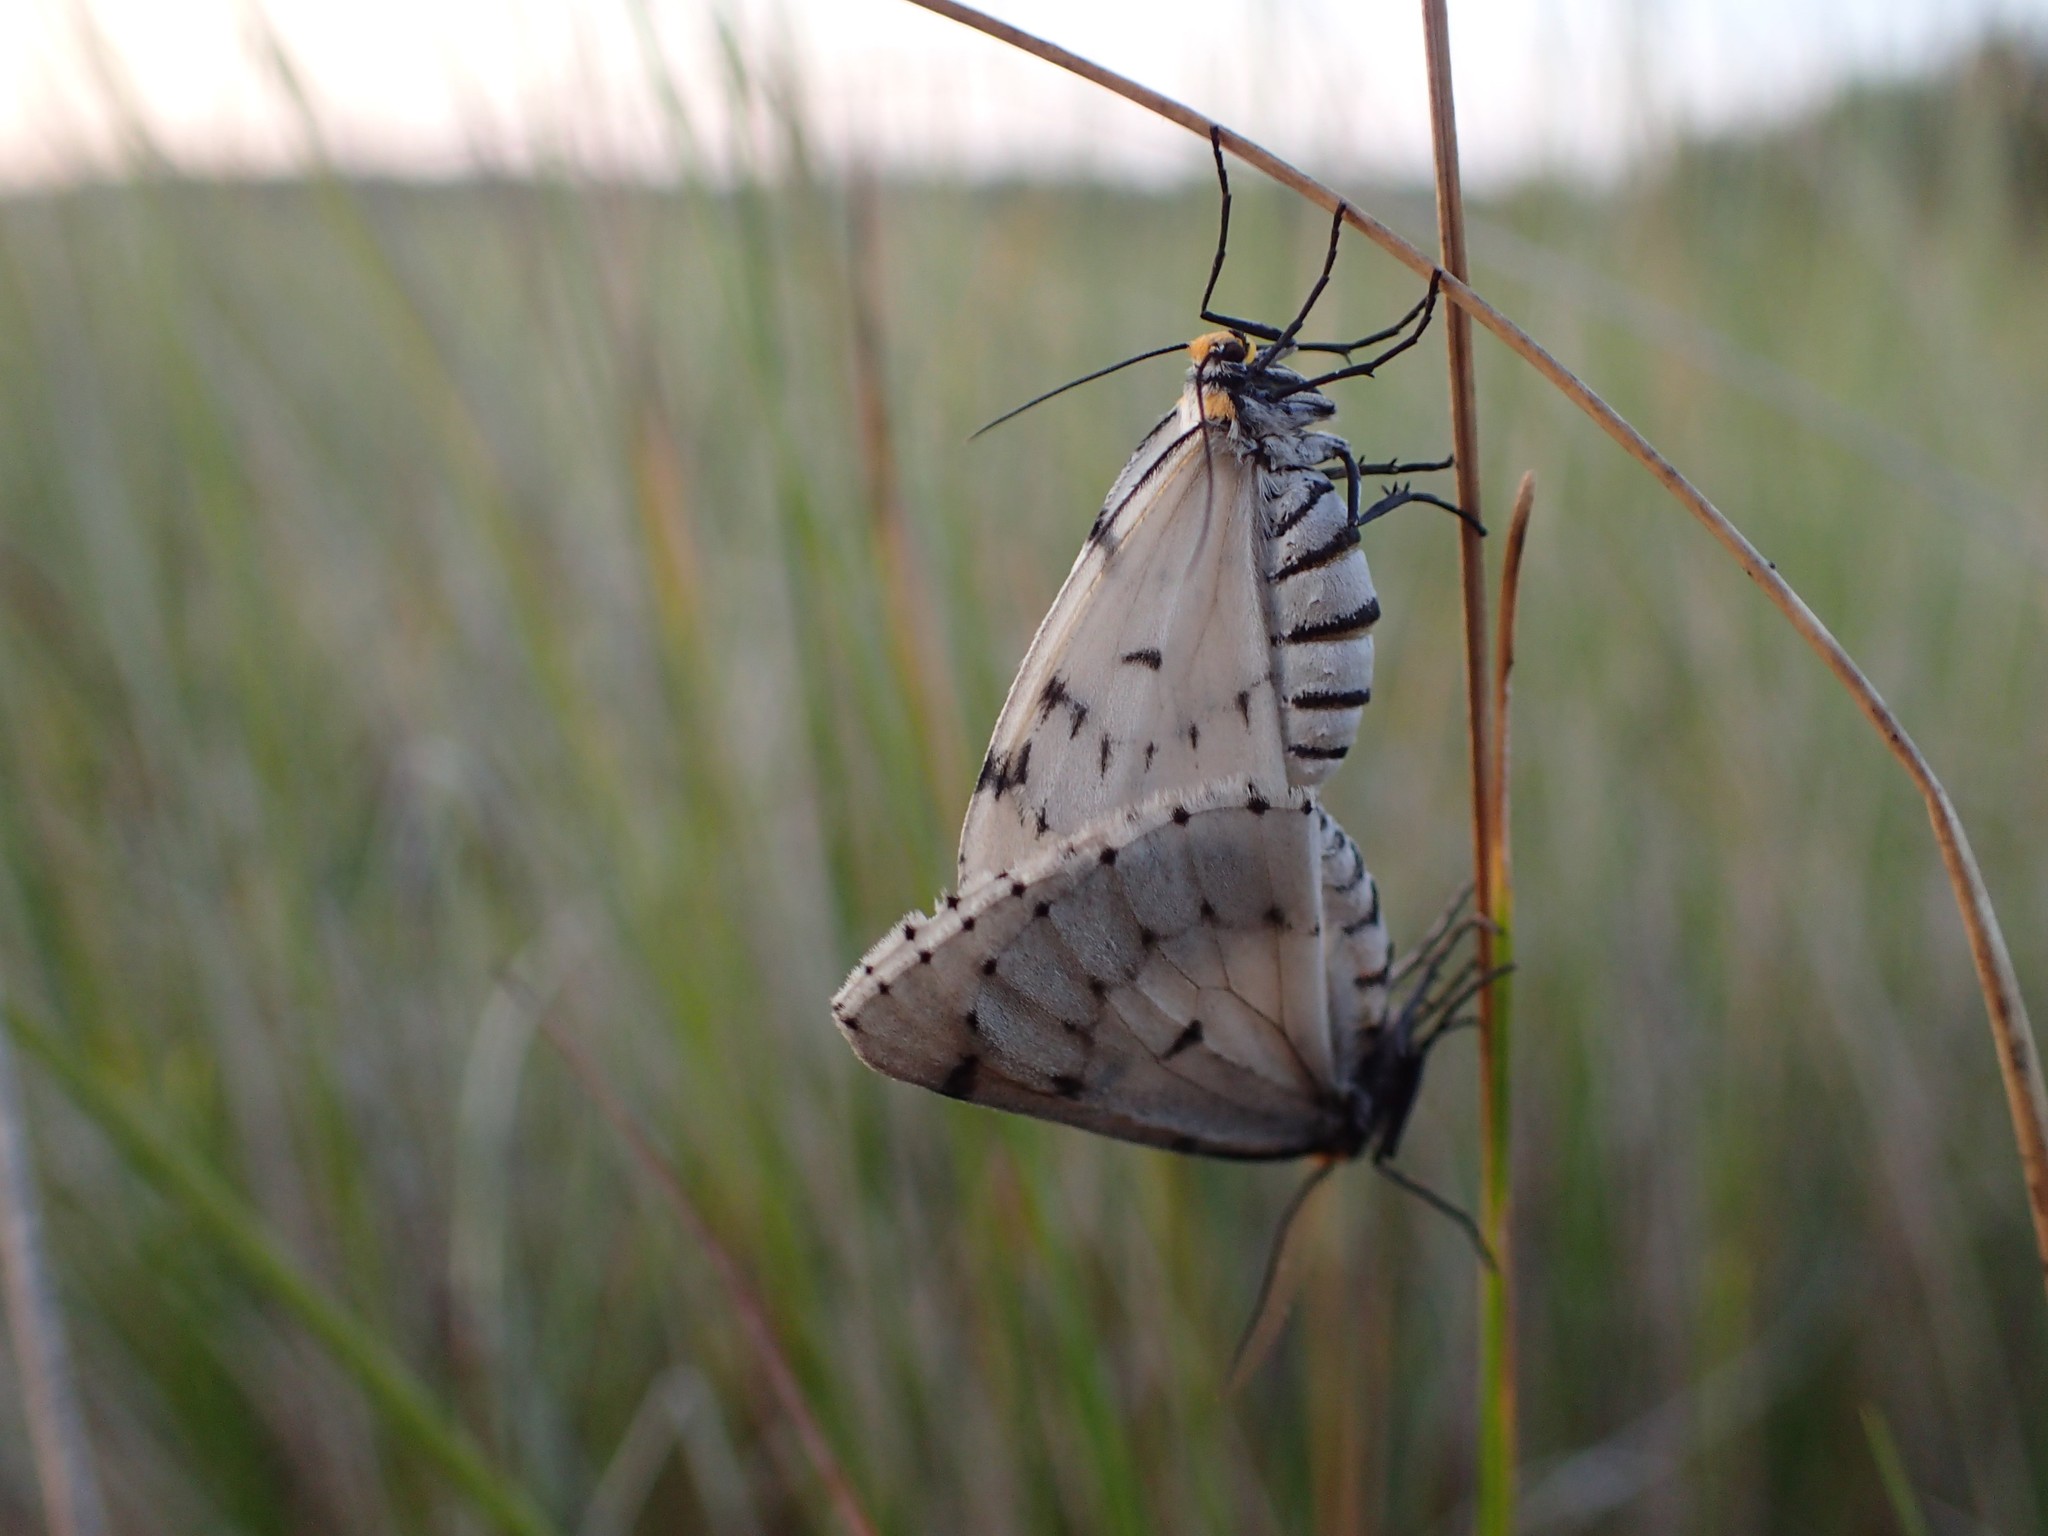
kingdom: Animalia
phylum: Arthropoda
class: Insecta
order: Lepidoptera
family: Geometridae
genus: Cingilia
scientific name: Cingilia catenaria
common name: Chain-dotted geometer
